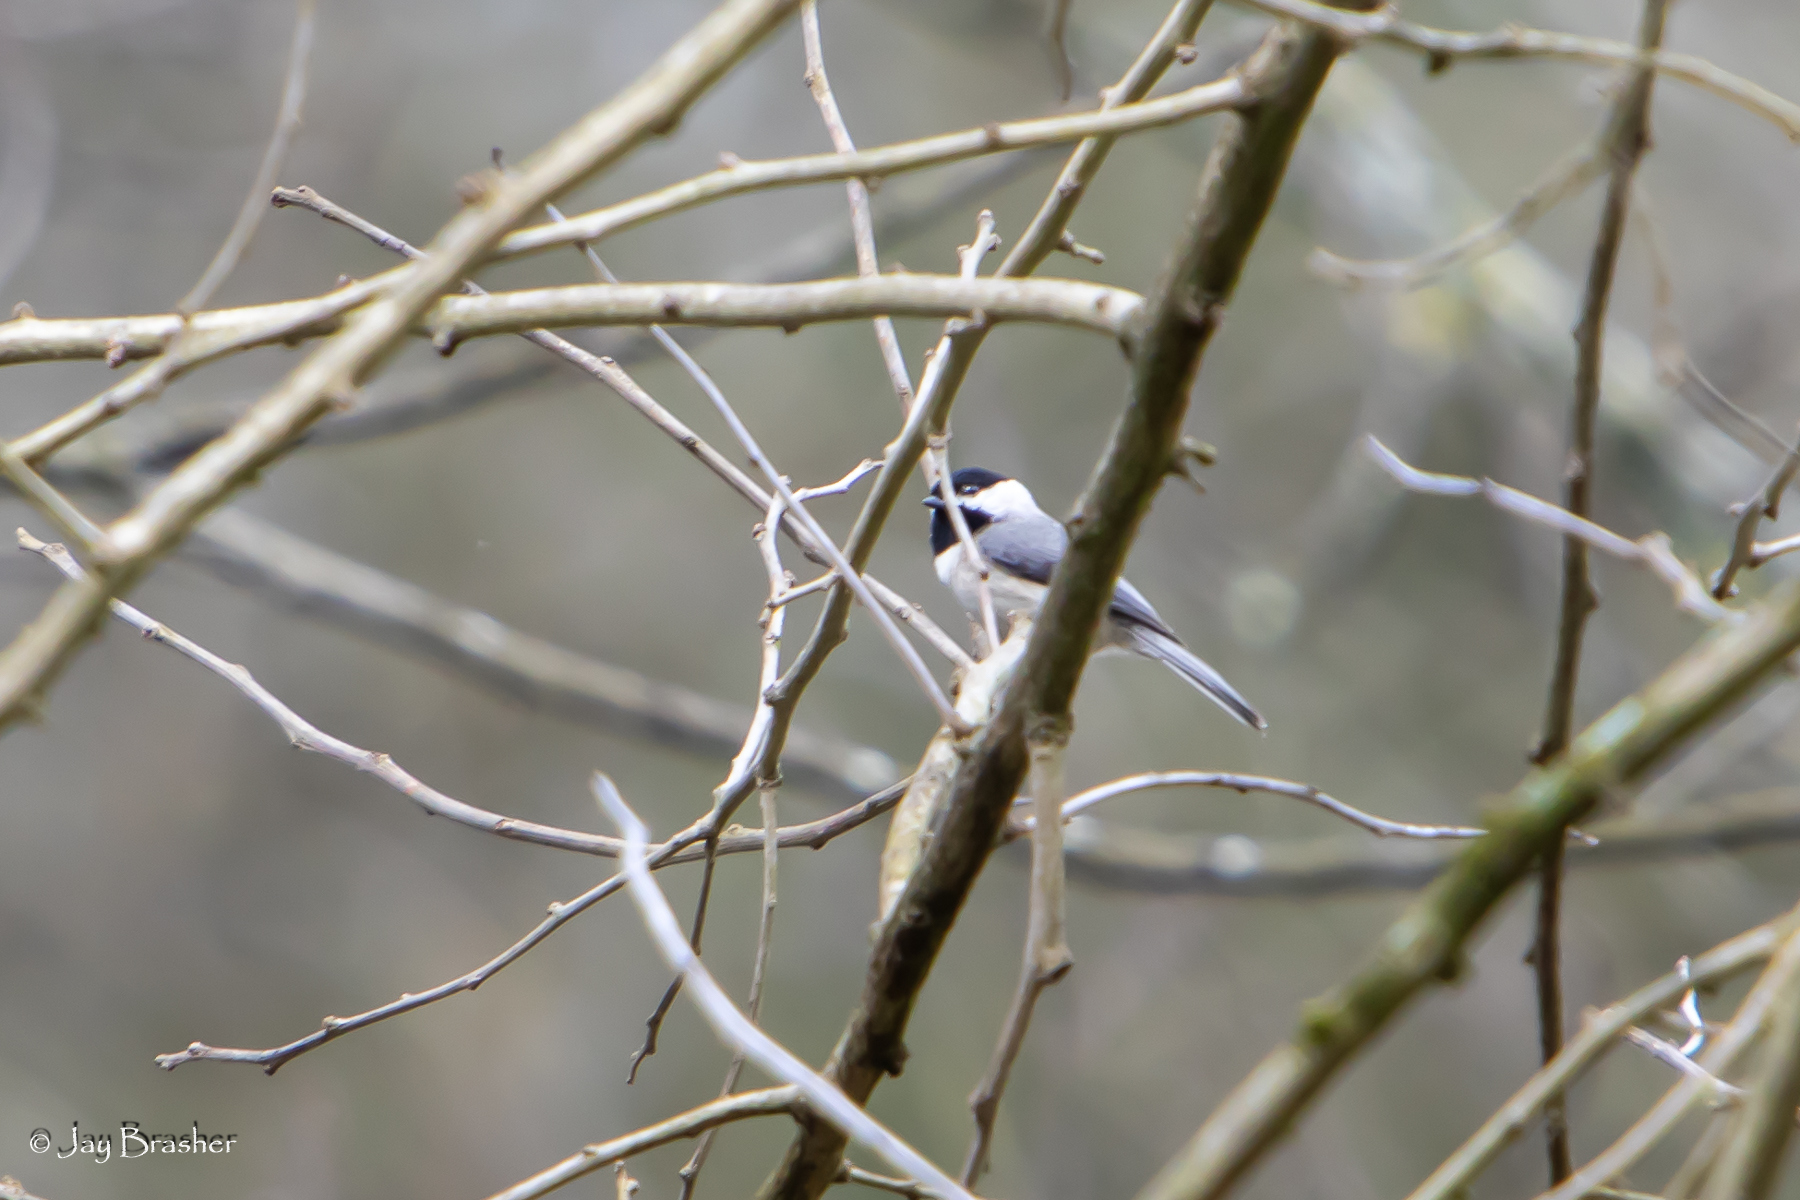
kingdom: Animalia
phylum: Chordata
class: Aves
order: Passeriformes
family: Paridae
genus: Poecile
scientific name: Poecile carolinensis
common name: Carolina chickadee
